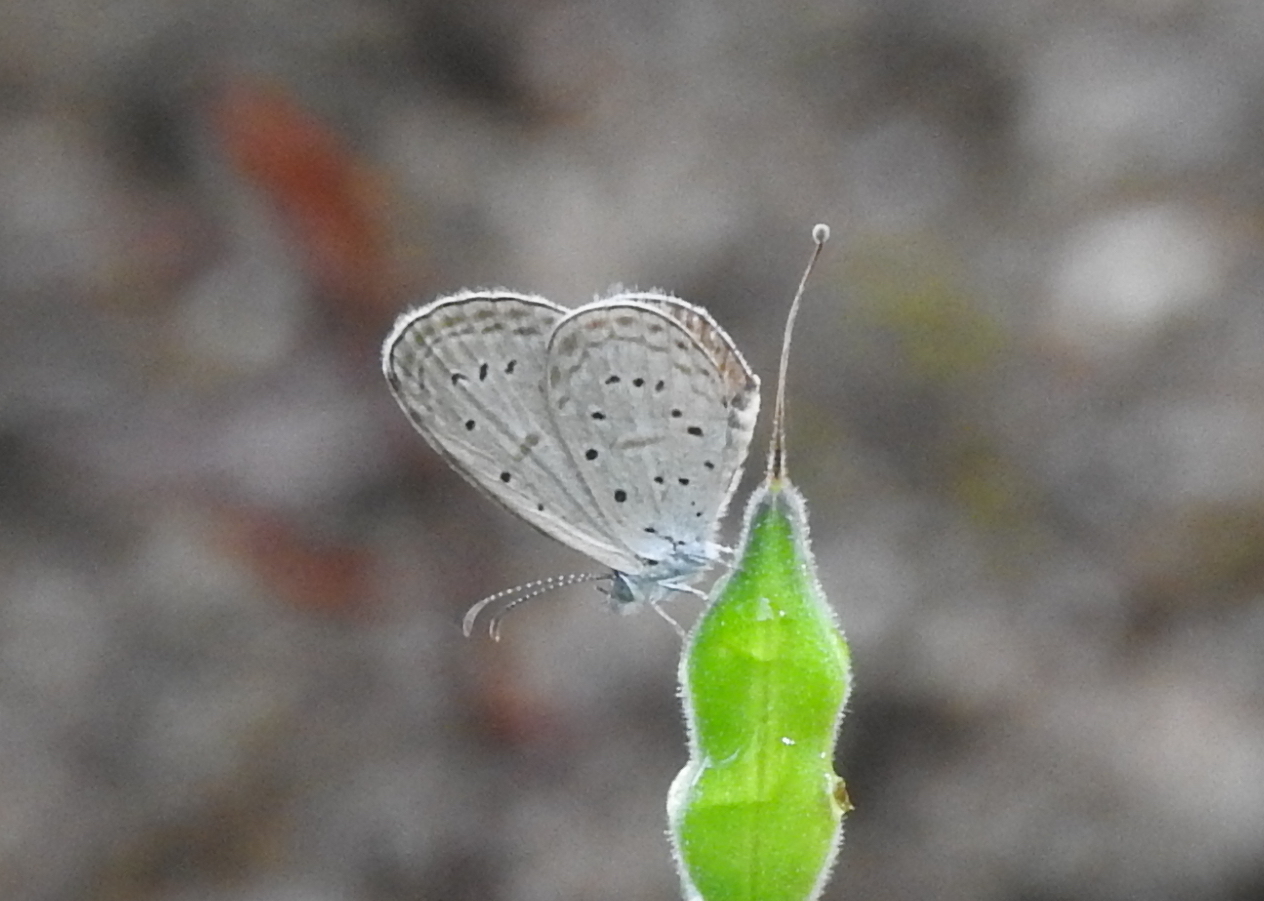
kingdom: Animalia
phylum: Arthropoda
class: Insecta
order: Lepidoptera
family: Lycaenidae
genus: Zizula
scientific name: Zizula hylax
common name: Gaika blue
